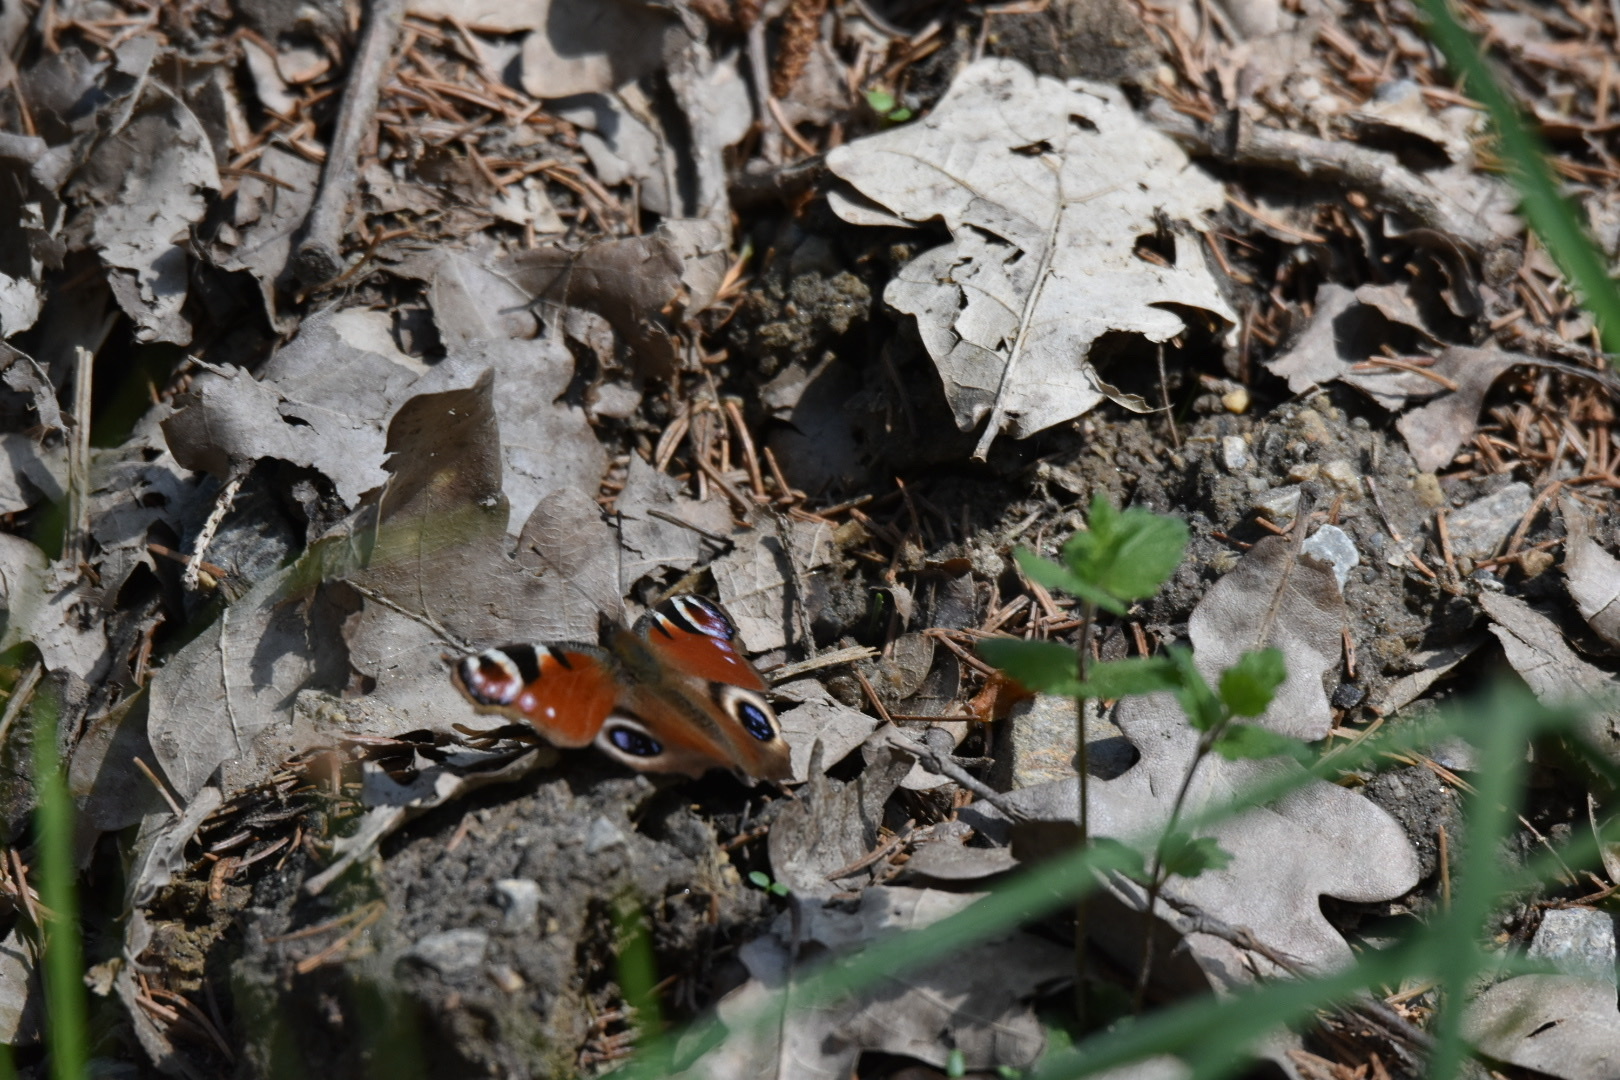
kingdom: Animalia
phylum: Arthropoda
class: Insecta
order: Lepidoptera
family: Nymphalidae
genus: Aglais
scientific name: Aglais io
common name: Peacock
